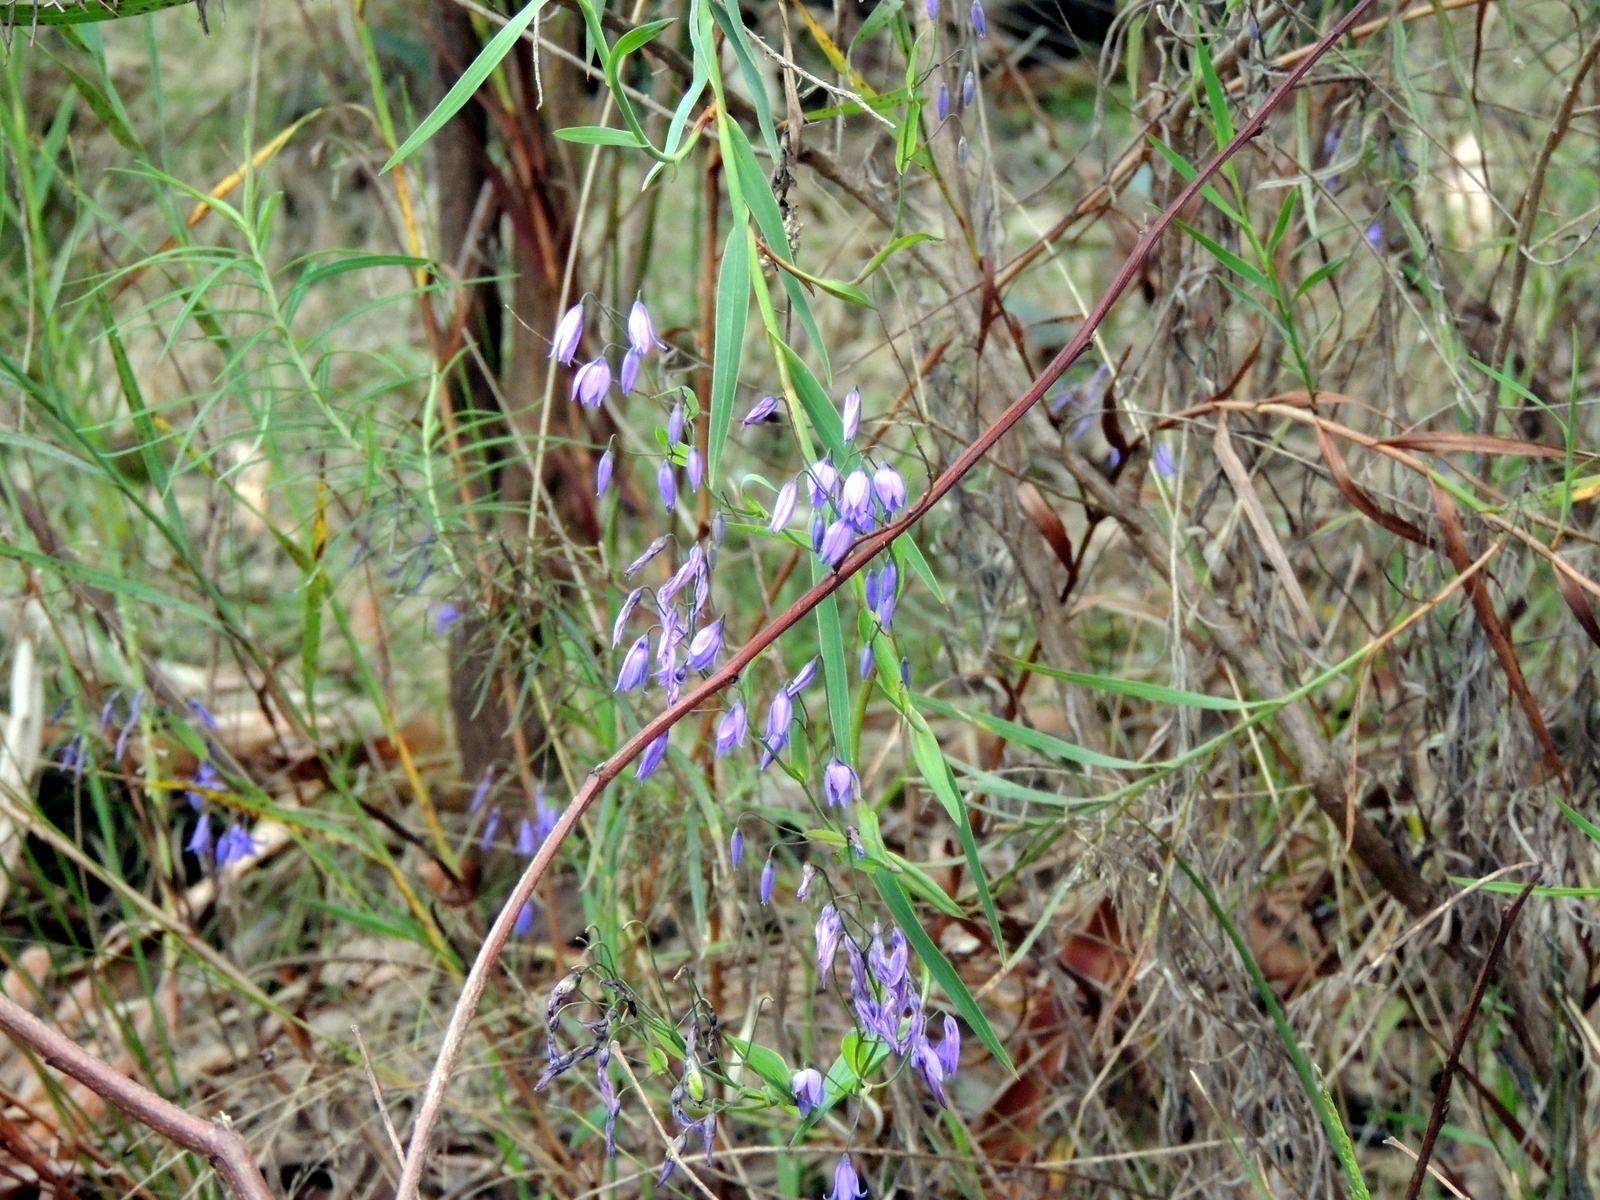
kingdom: Plantae
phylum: Tracheophyta
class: Liliopsida
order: Asparagales
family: Asphodelaceae
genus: Stypandra
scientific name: Stypandra glauca
